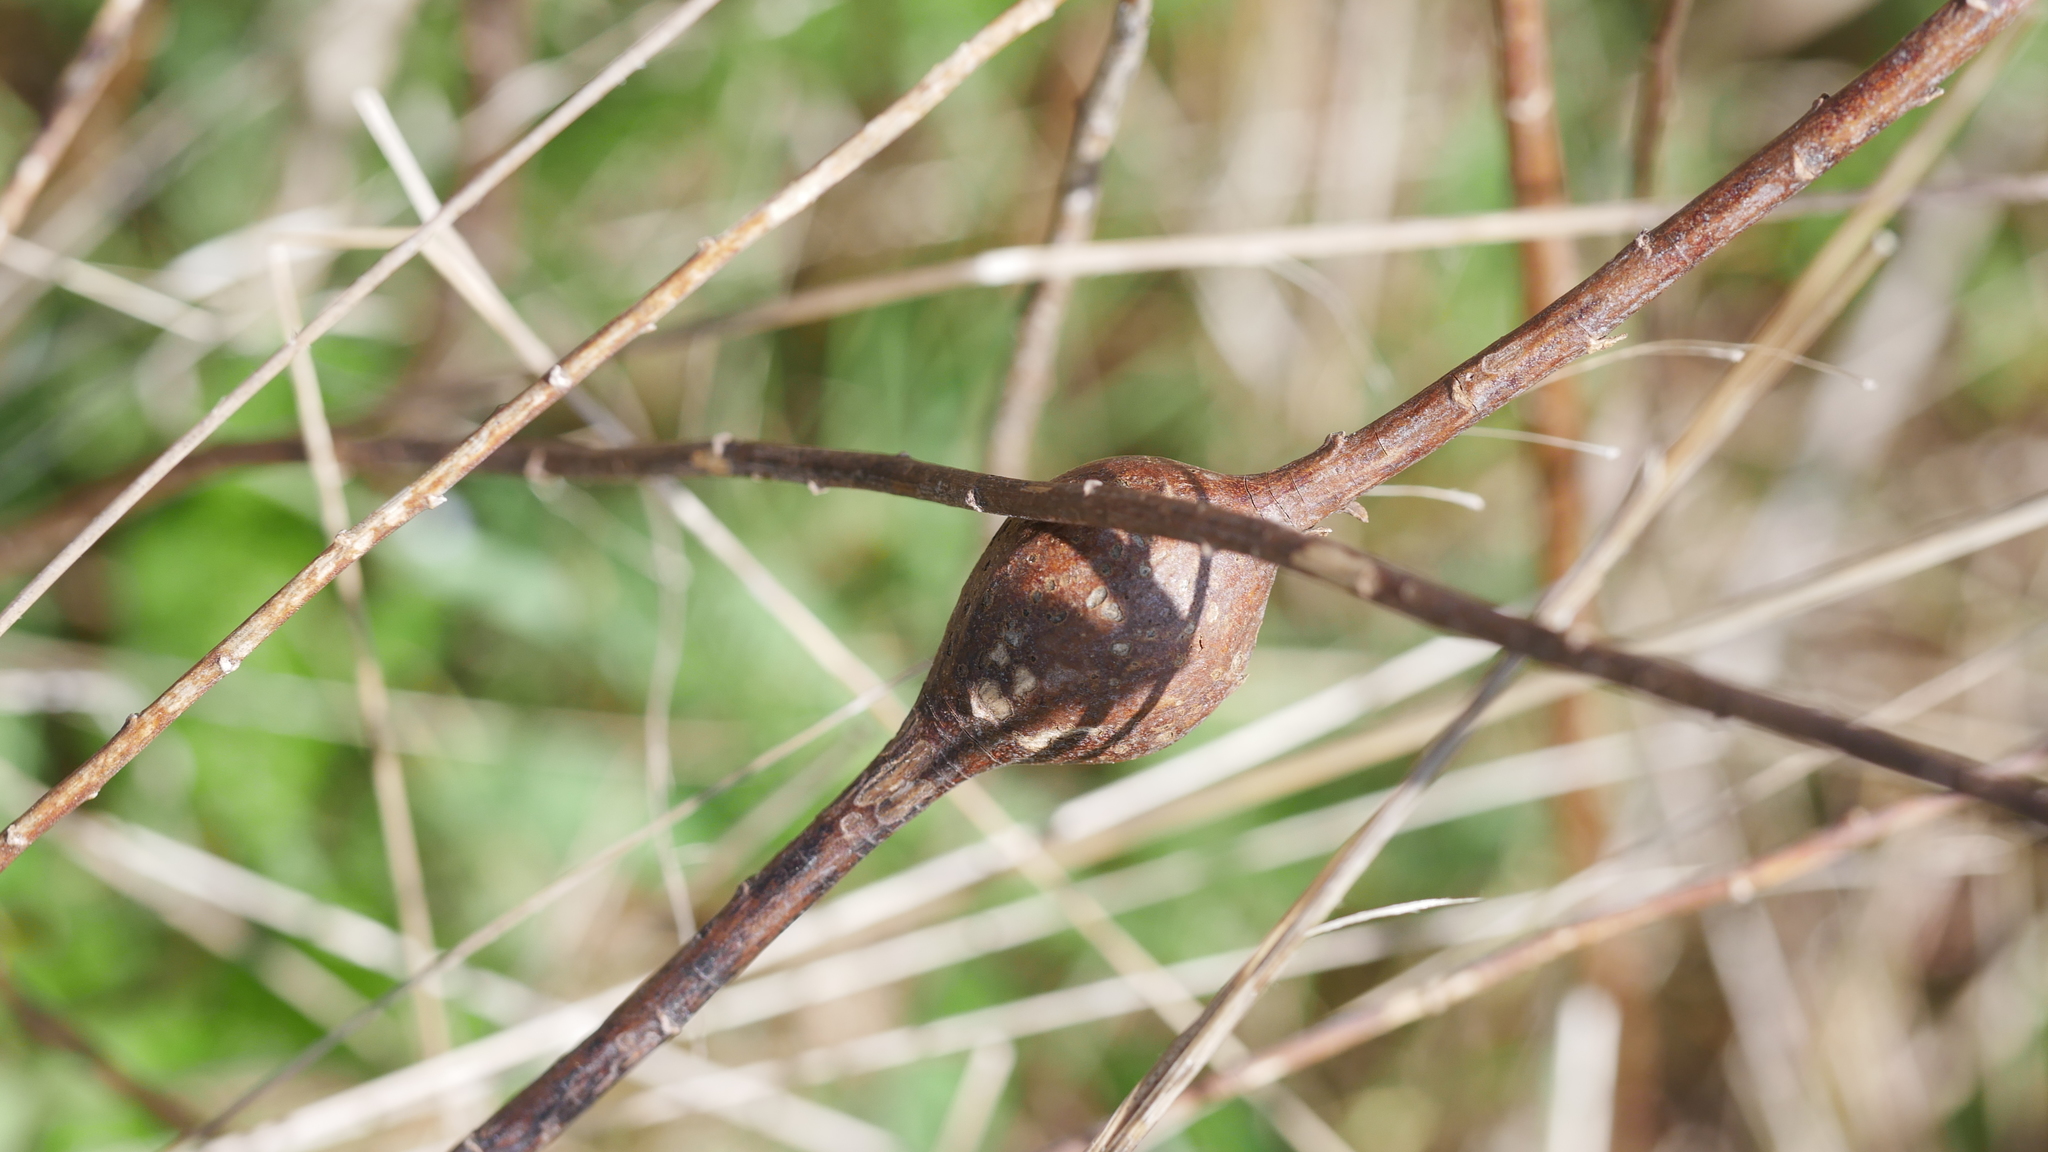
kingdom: Animalia
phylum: Arthropoda
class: Insecta
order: Diptera
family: Tephritidae
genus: Eurosta
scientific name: Eurosta solidaginis
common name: Goldenrod gall fly
